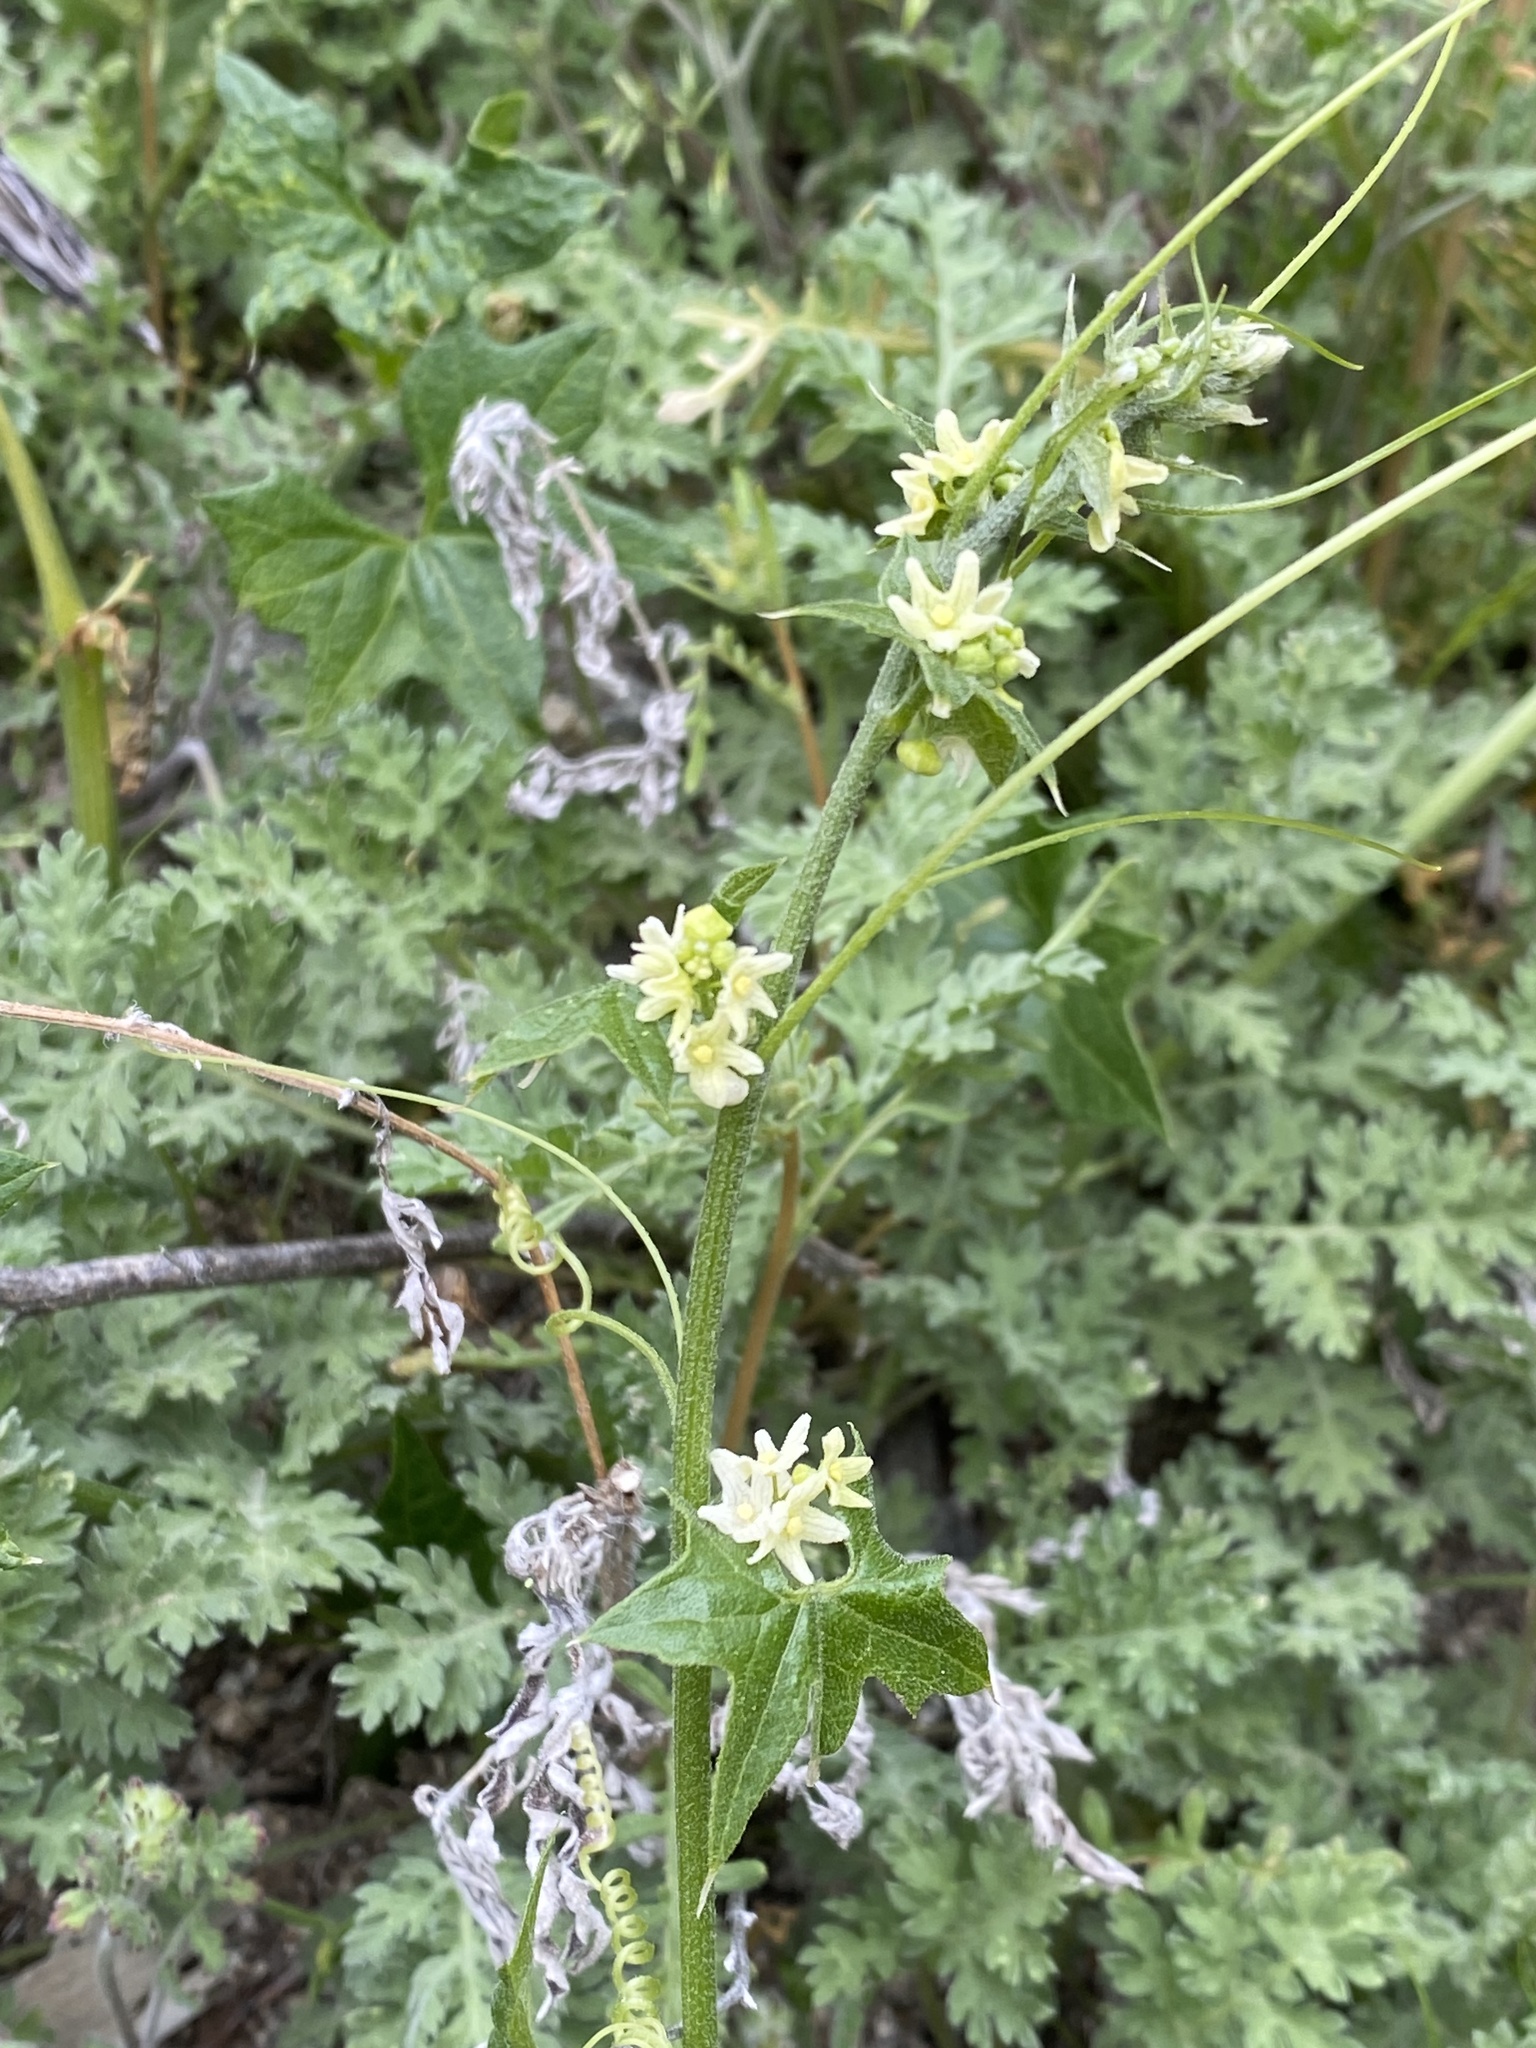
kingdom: Plantae
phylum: Tracheophyta
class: Magnoliopsida
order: Cucurbitales
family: Cucurbitaceae
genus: Marah
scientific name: Marah gilensis
